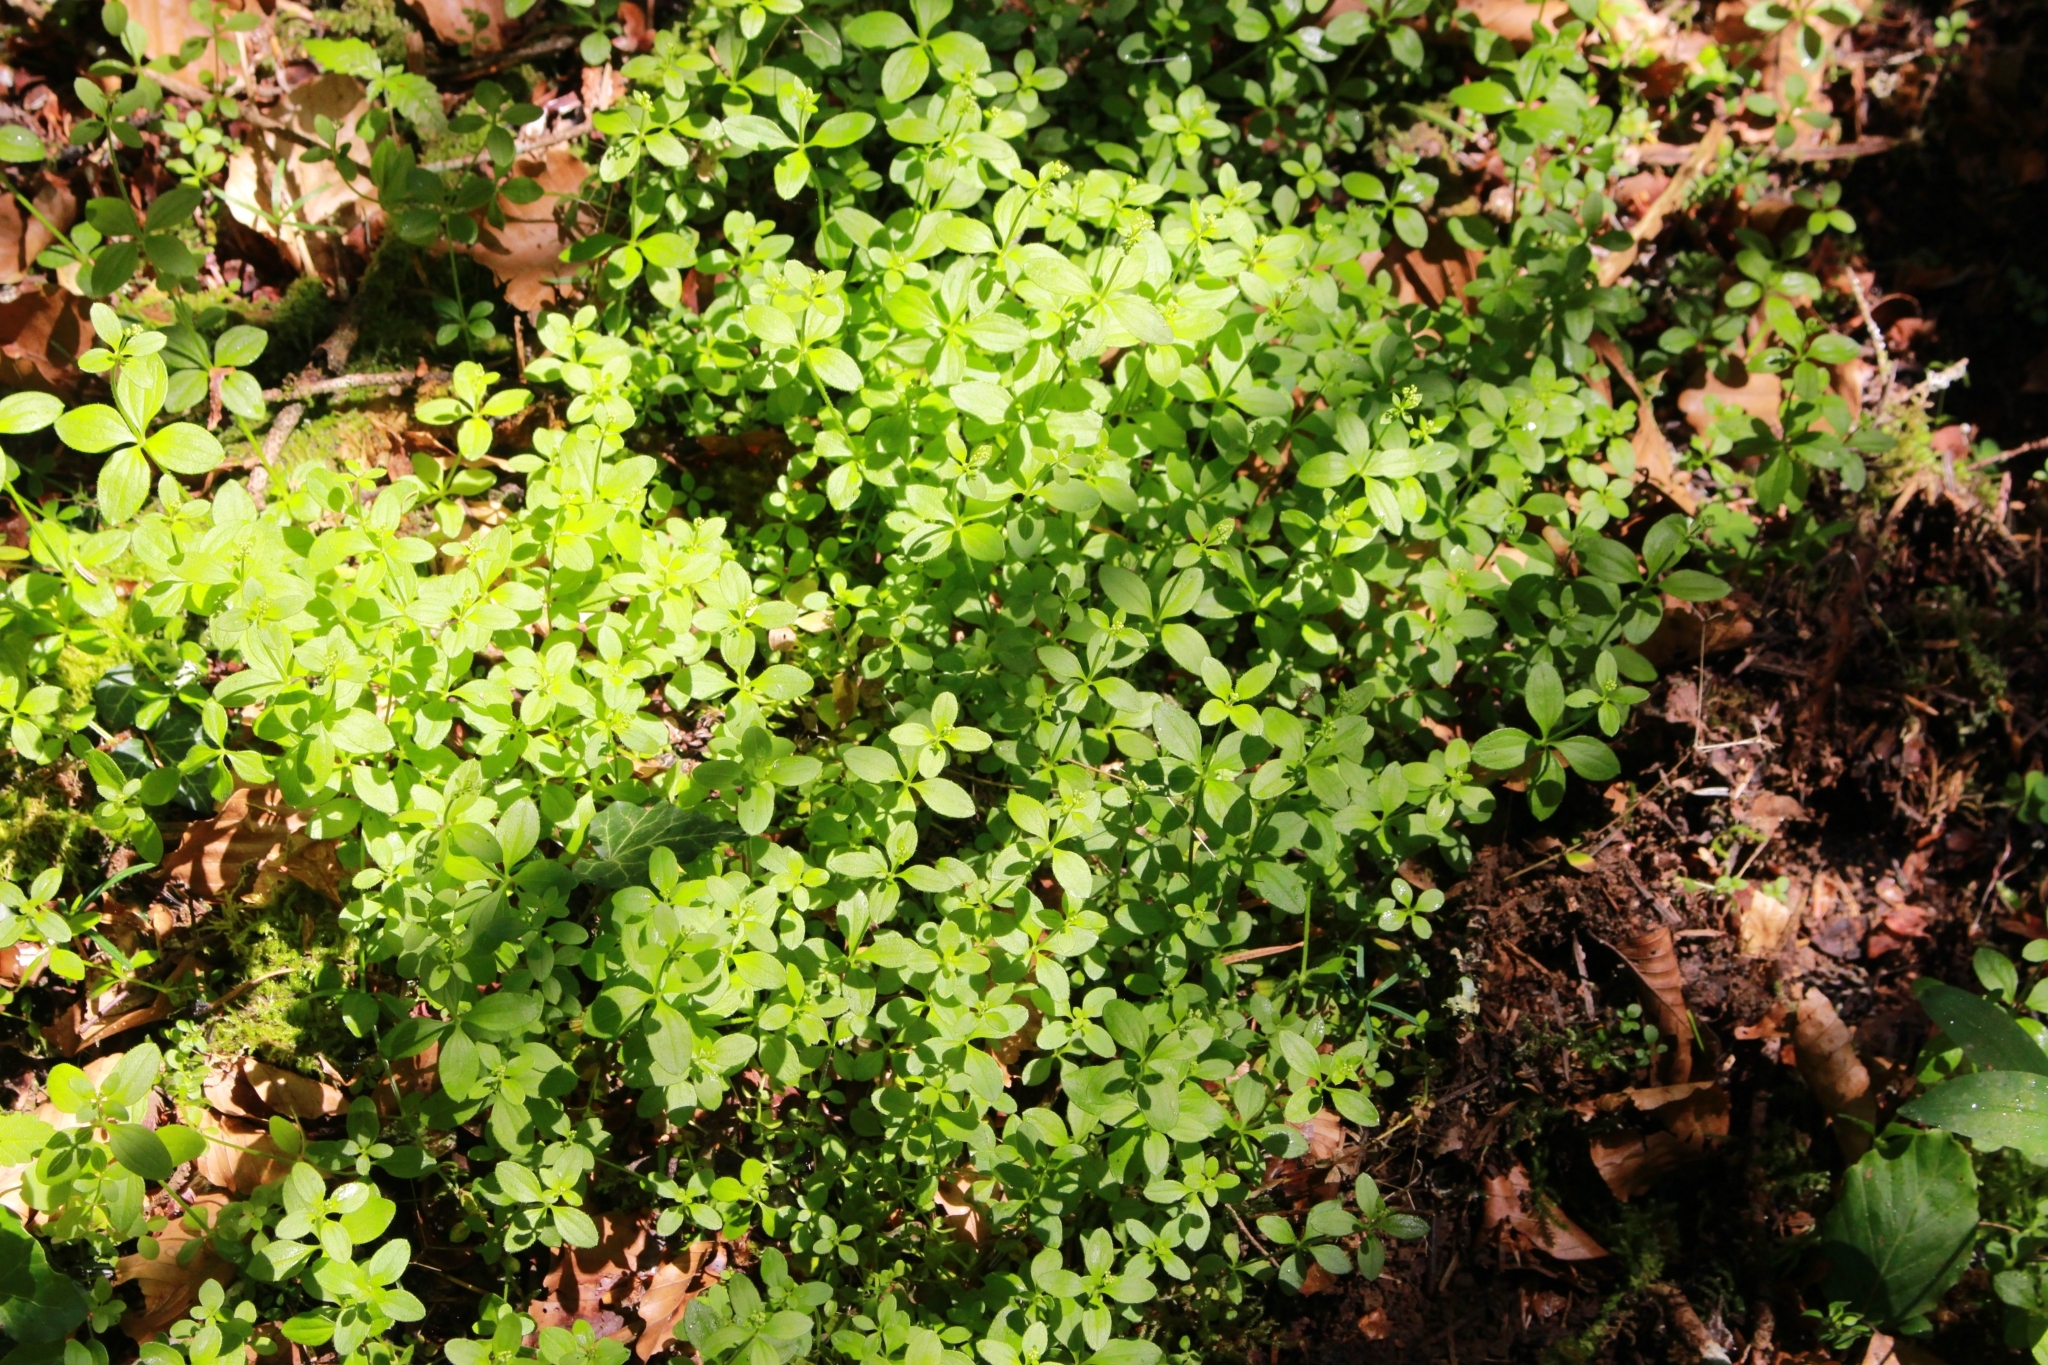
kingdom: Plantae
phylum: Tracheophyta
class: Magnoliopsida
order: Gentianales
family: Rubiaceae
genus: Galium
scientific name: Galium rotundifolium
